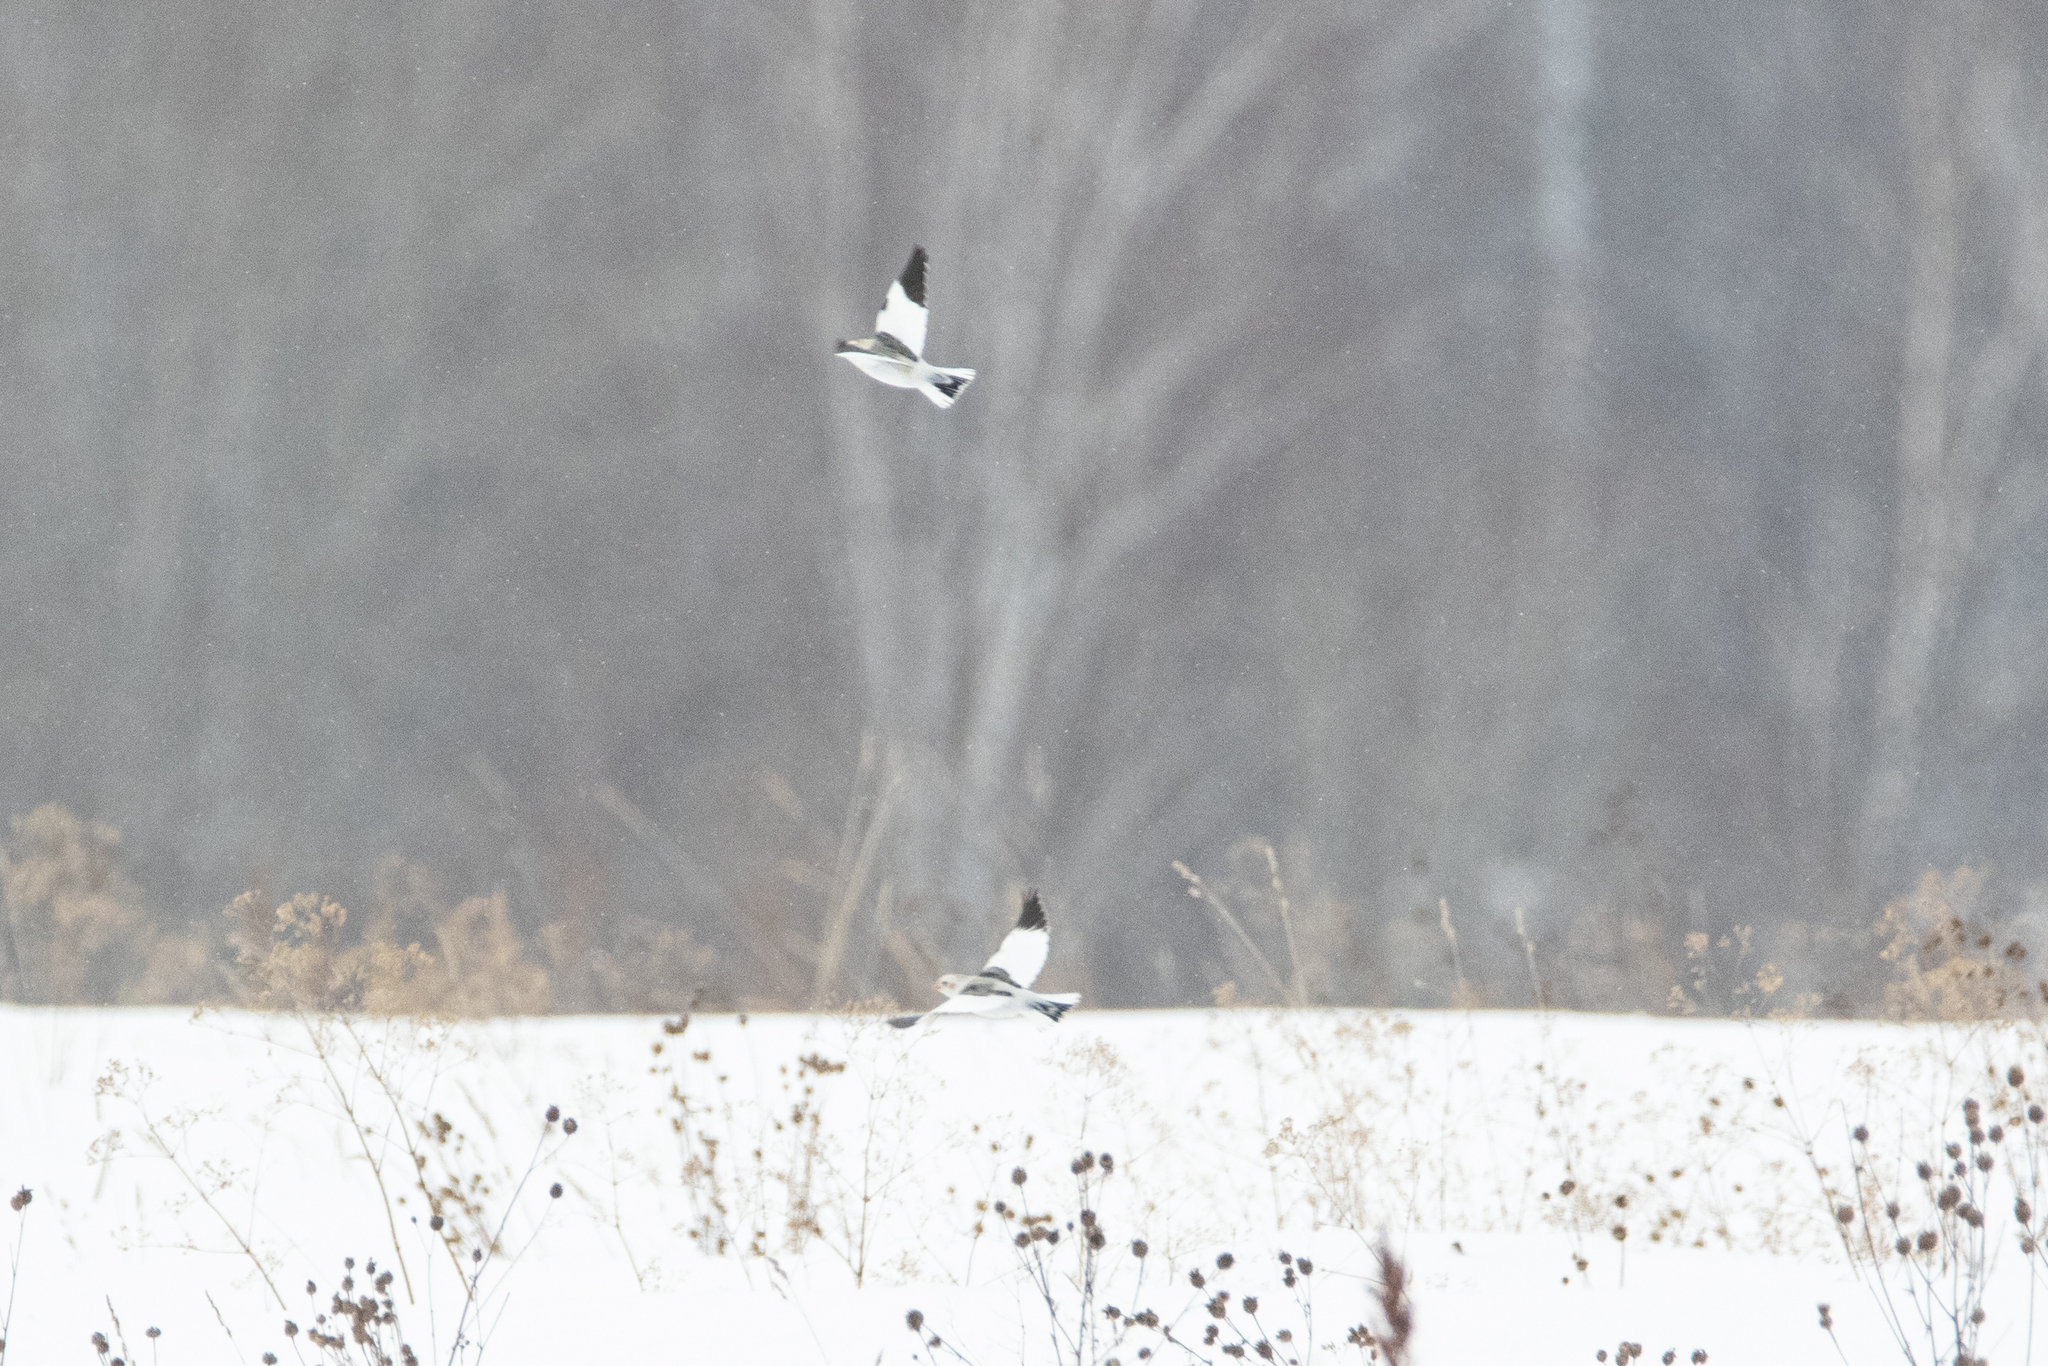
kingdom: Animalia
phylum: Chordata
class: Aves
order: Passeriformes
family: Calcariidae
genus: Plectrophenax
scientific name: Plectrophenax nivalis
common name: Snow bunting
